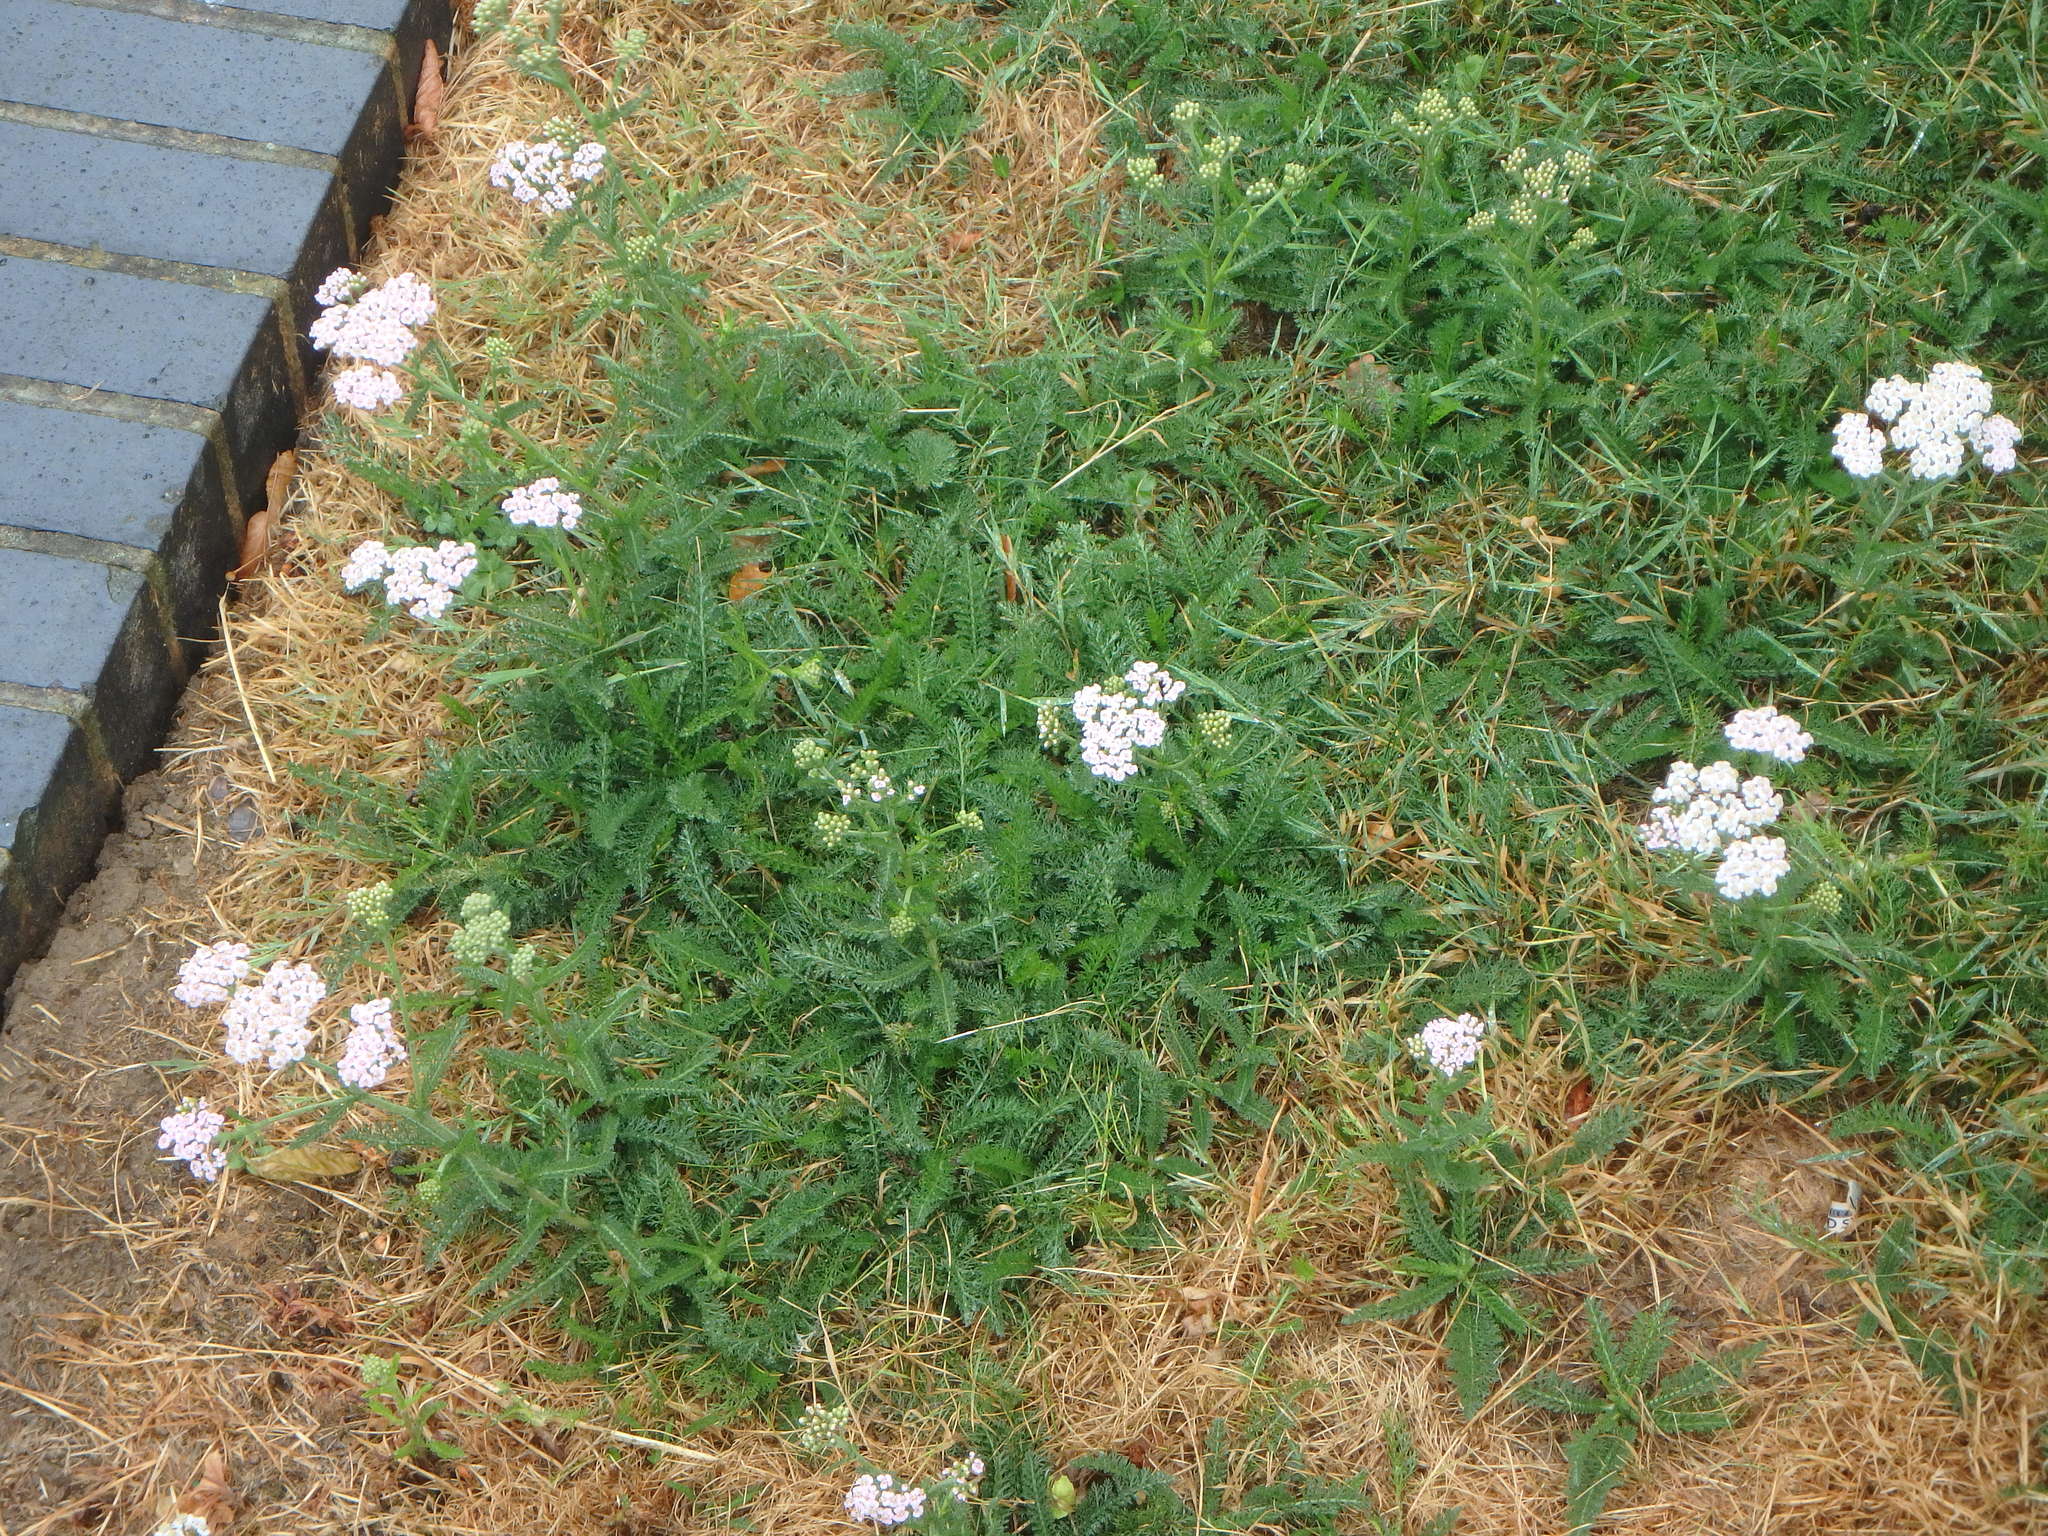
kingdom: Plantae
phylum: Tracheophyta
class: Magnoliopsida
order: Asterales
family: Asteraceae
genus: Achillea
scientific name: Achillea millefolium
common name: Yarrow
